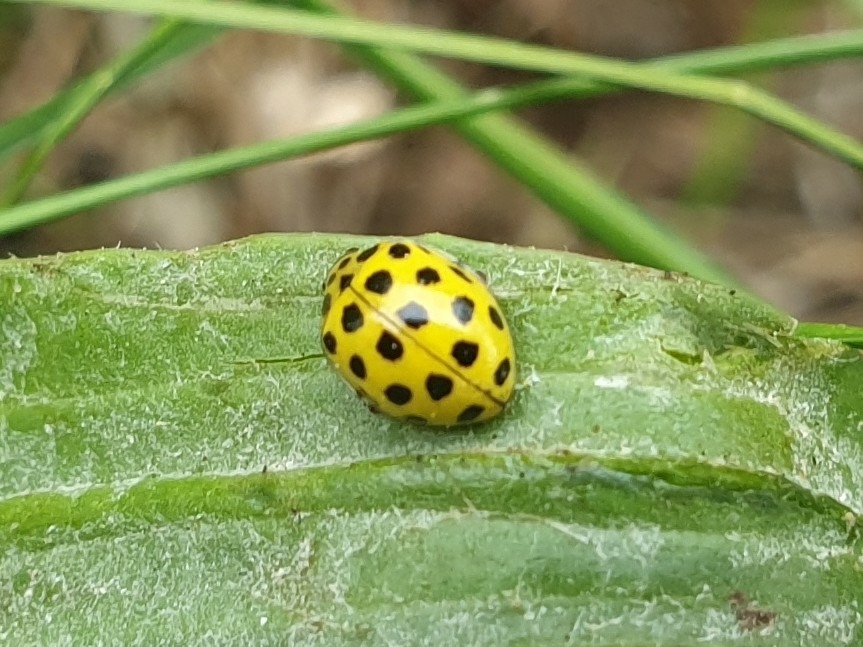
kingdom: Animalia
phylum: Arthropoda
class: Insecta
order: Coleoptera
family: Coccinellidae
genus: Psyllobora
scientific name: Psyllobora vigintiduopunctata
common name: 22-spot ladybird
